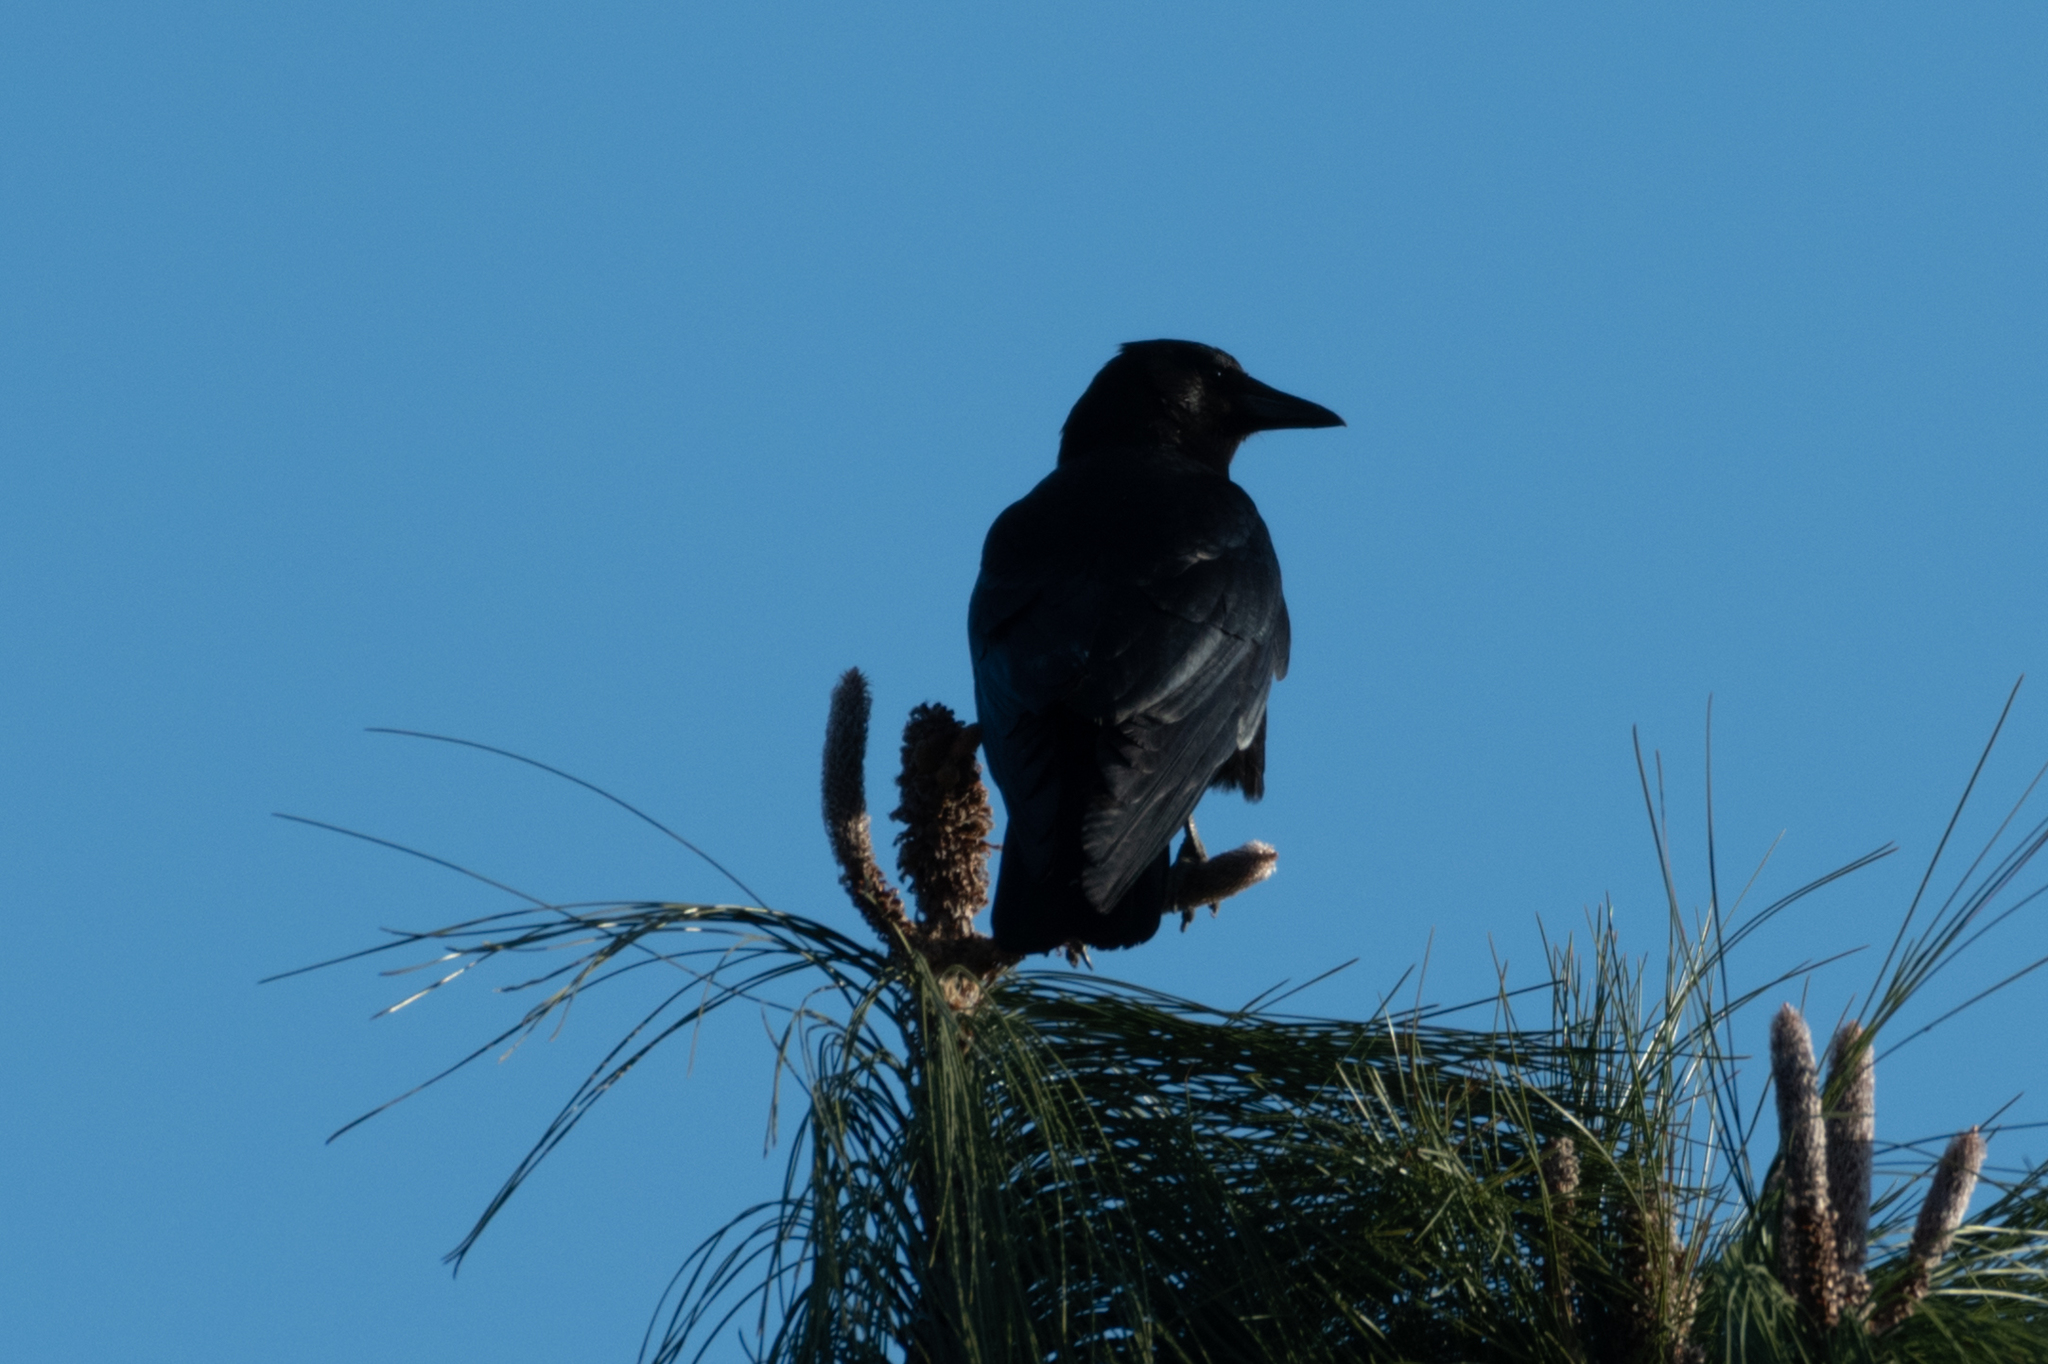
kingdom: Animalia
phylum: Chordata
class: Aves
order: Passeriformes
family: Corvidae
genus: Corvus
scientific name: Corvus brachyrhynchos
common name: American crow
